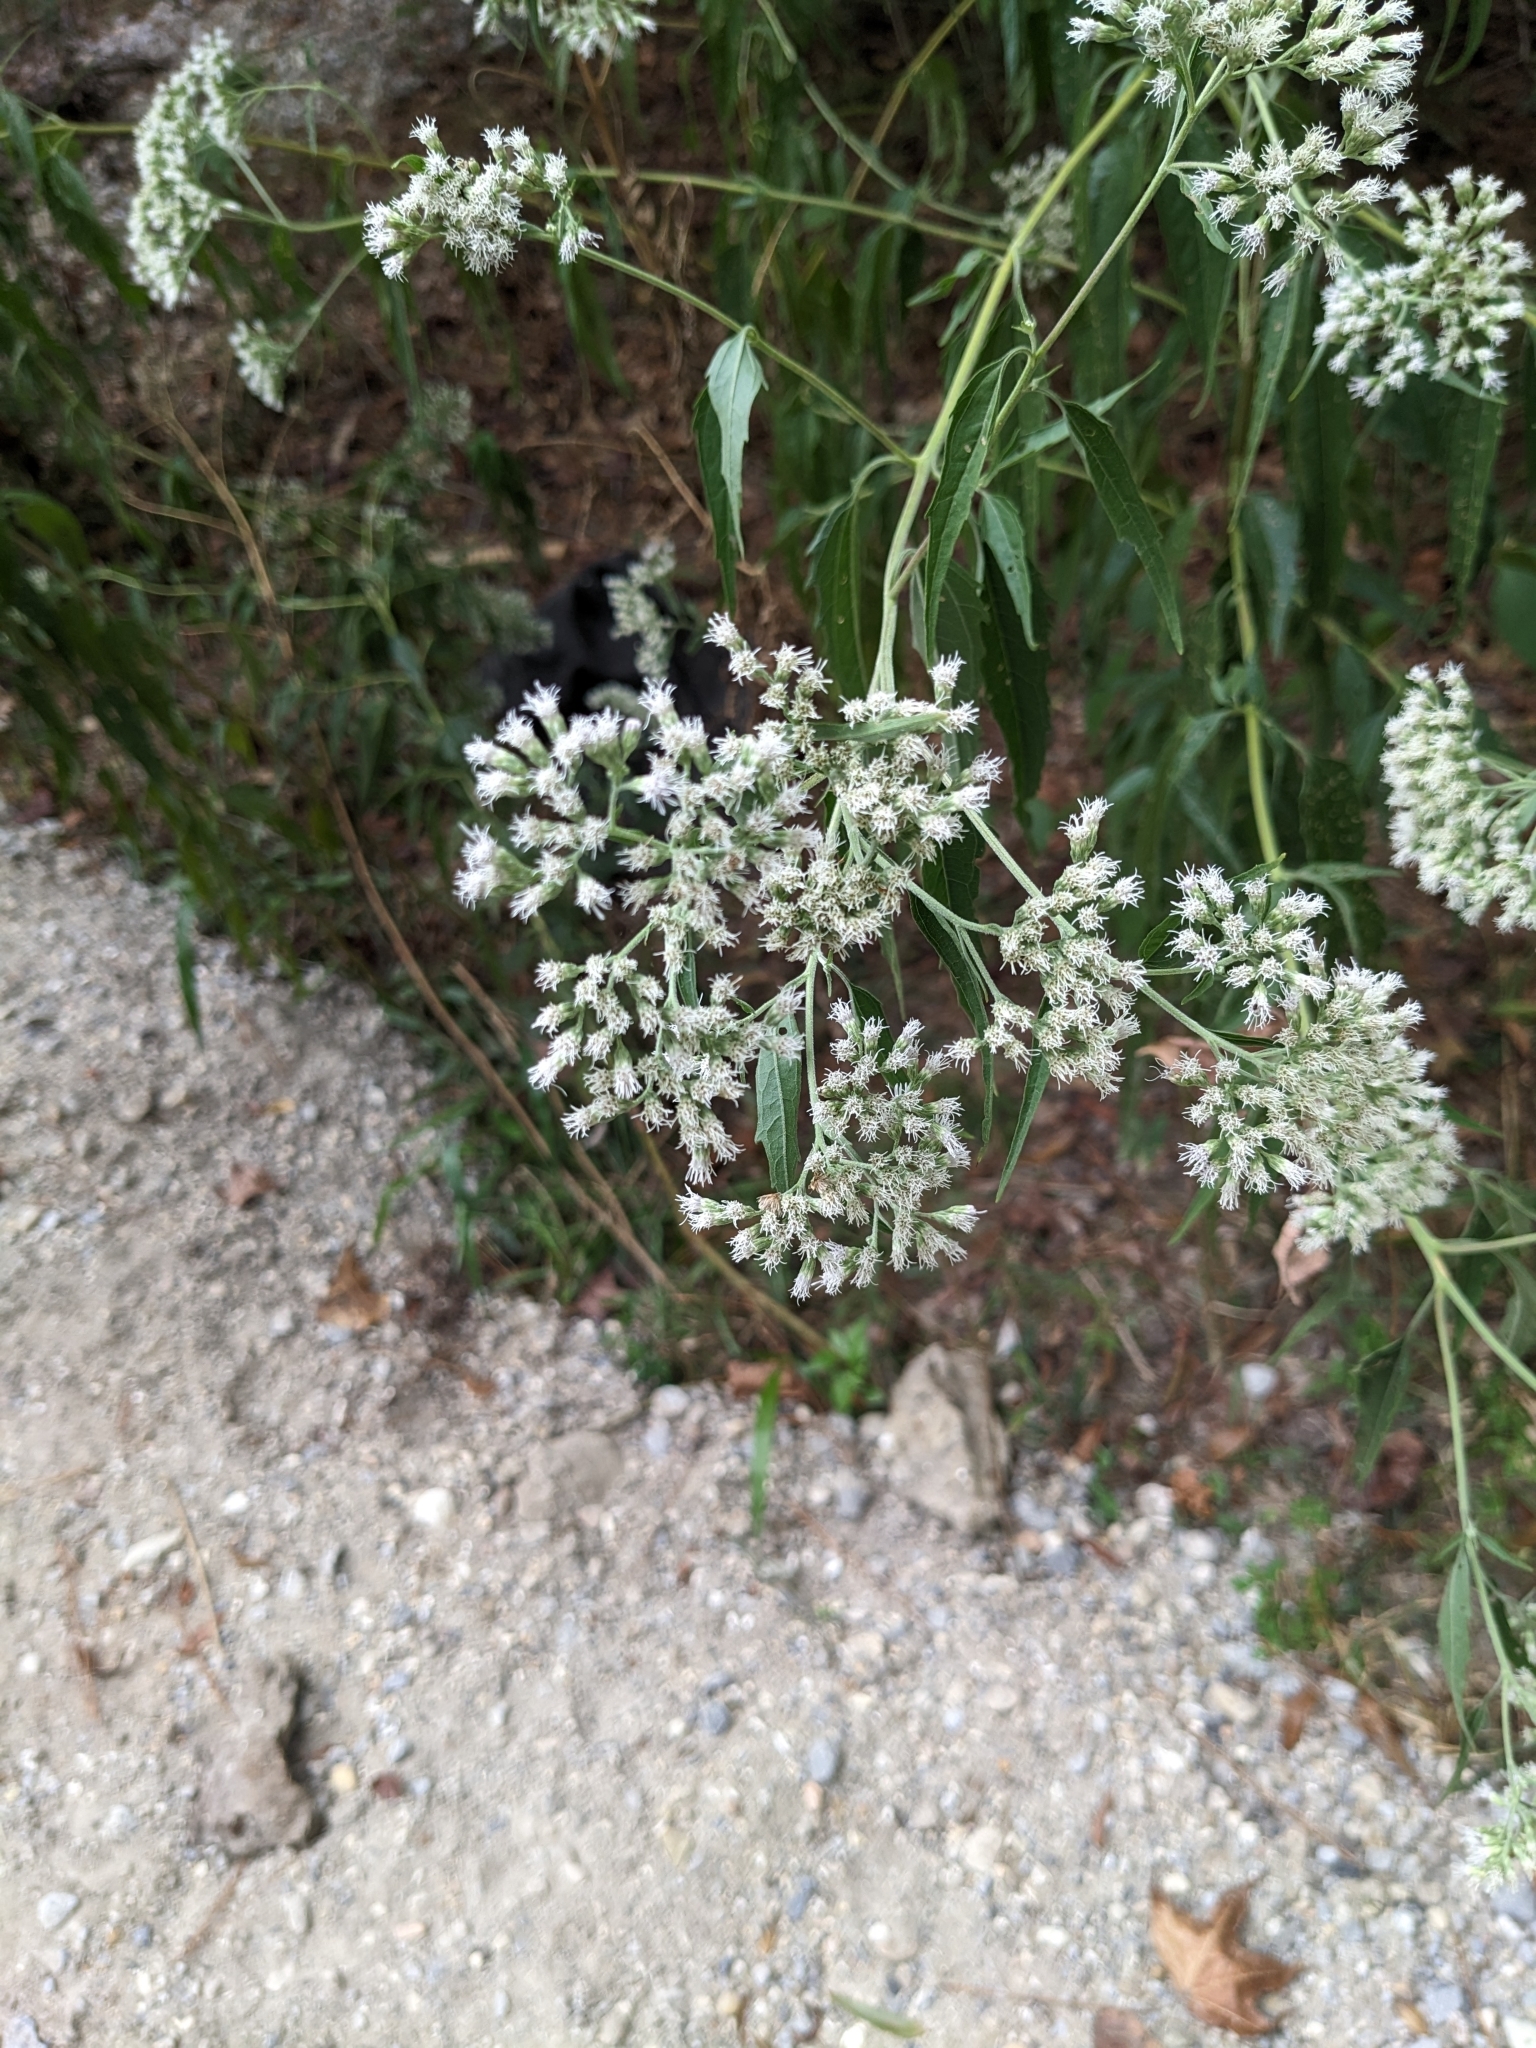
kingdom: Plantae
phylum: Tracheophyta
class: Magnoliopsida
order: Asterales
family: Asteraceae
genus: Eupatorium
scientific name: Eupatorium serotinum
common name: Late boneset
